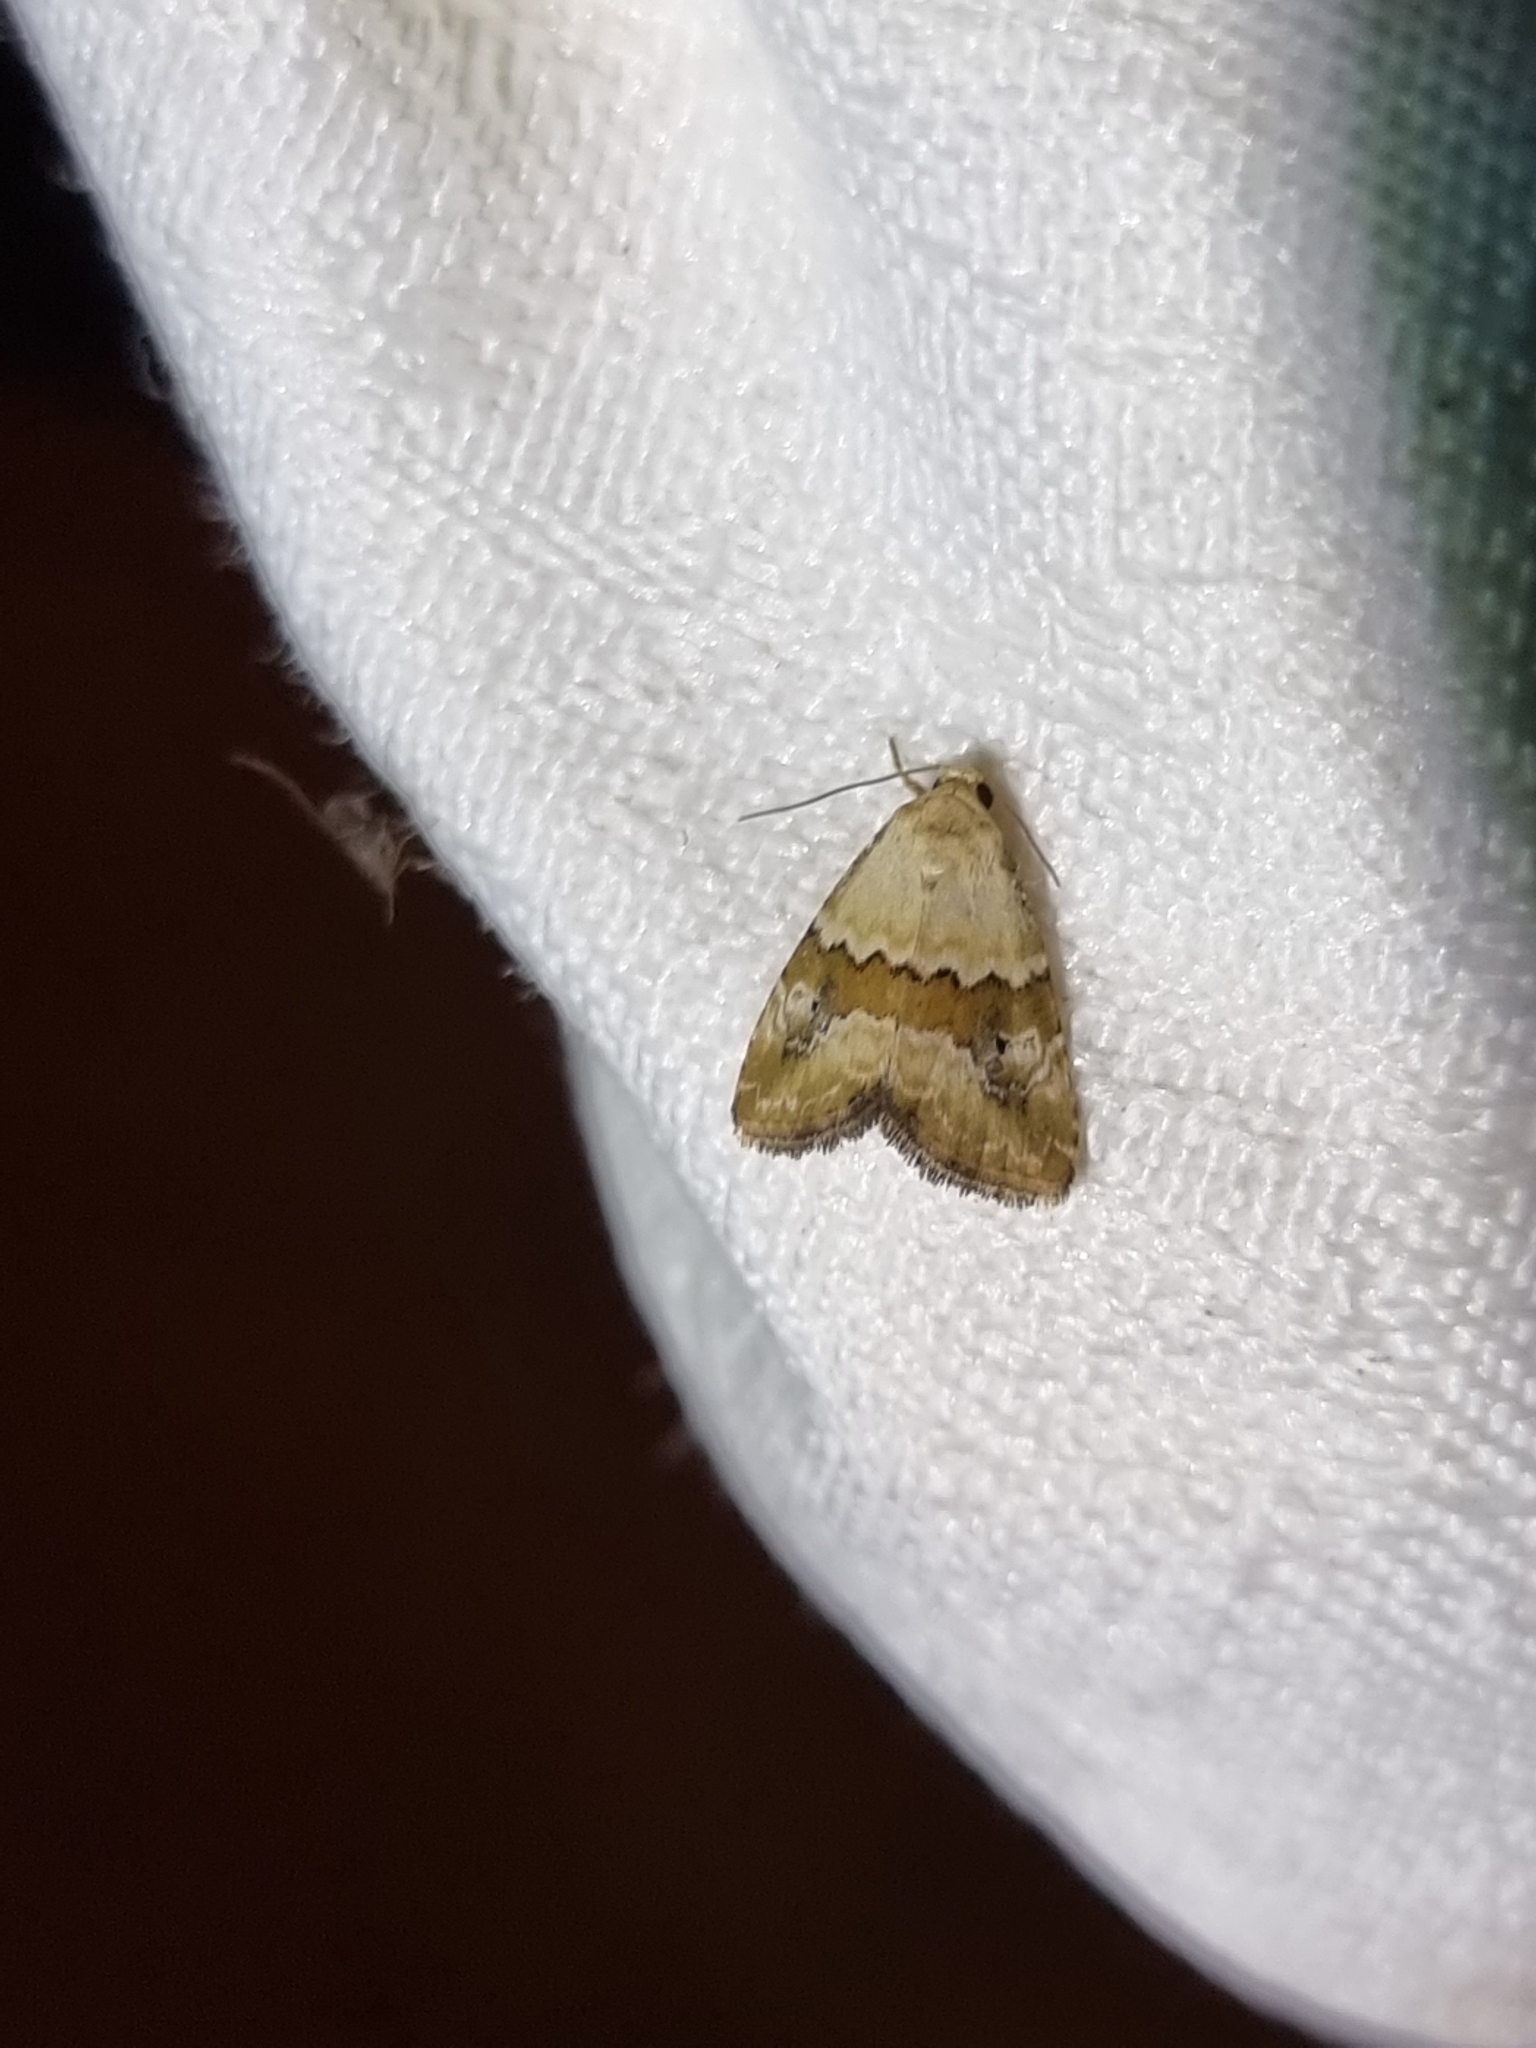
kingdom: Animalia
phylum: Arthropoda
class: Insecta
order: Lepidoptera
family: Noctuidae
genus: Maliattha
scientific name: Maliattha amorpha
